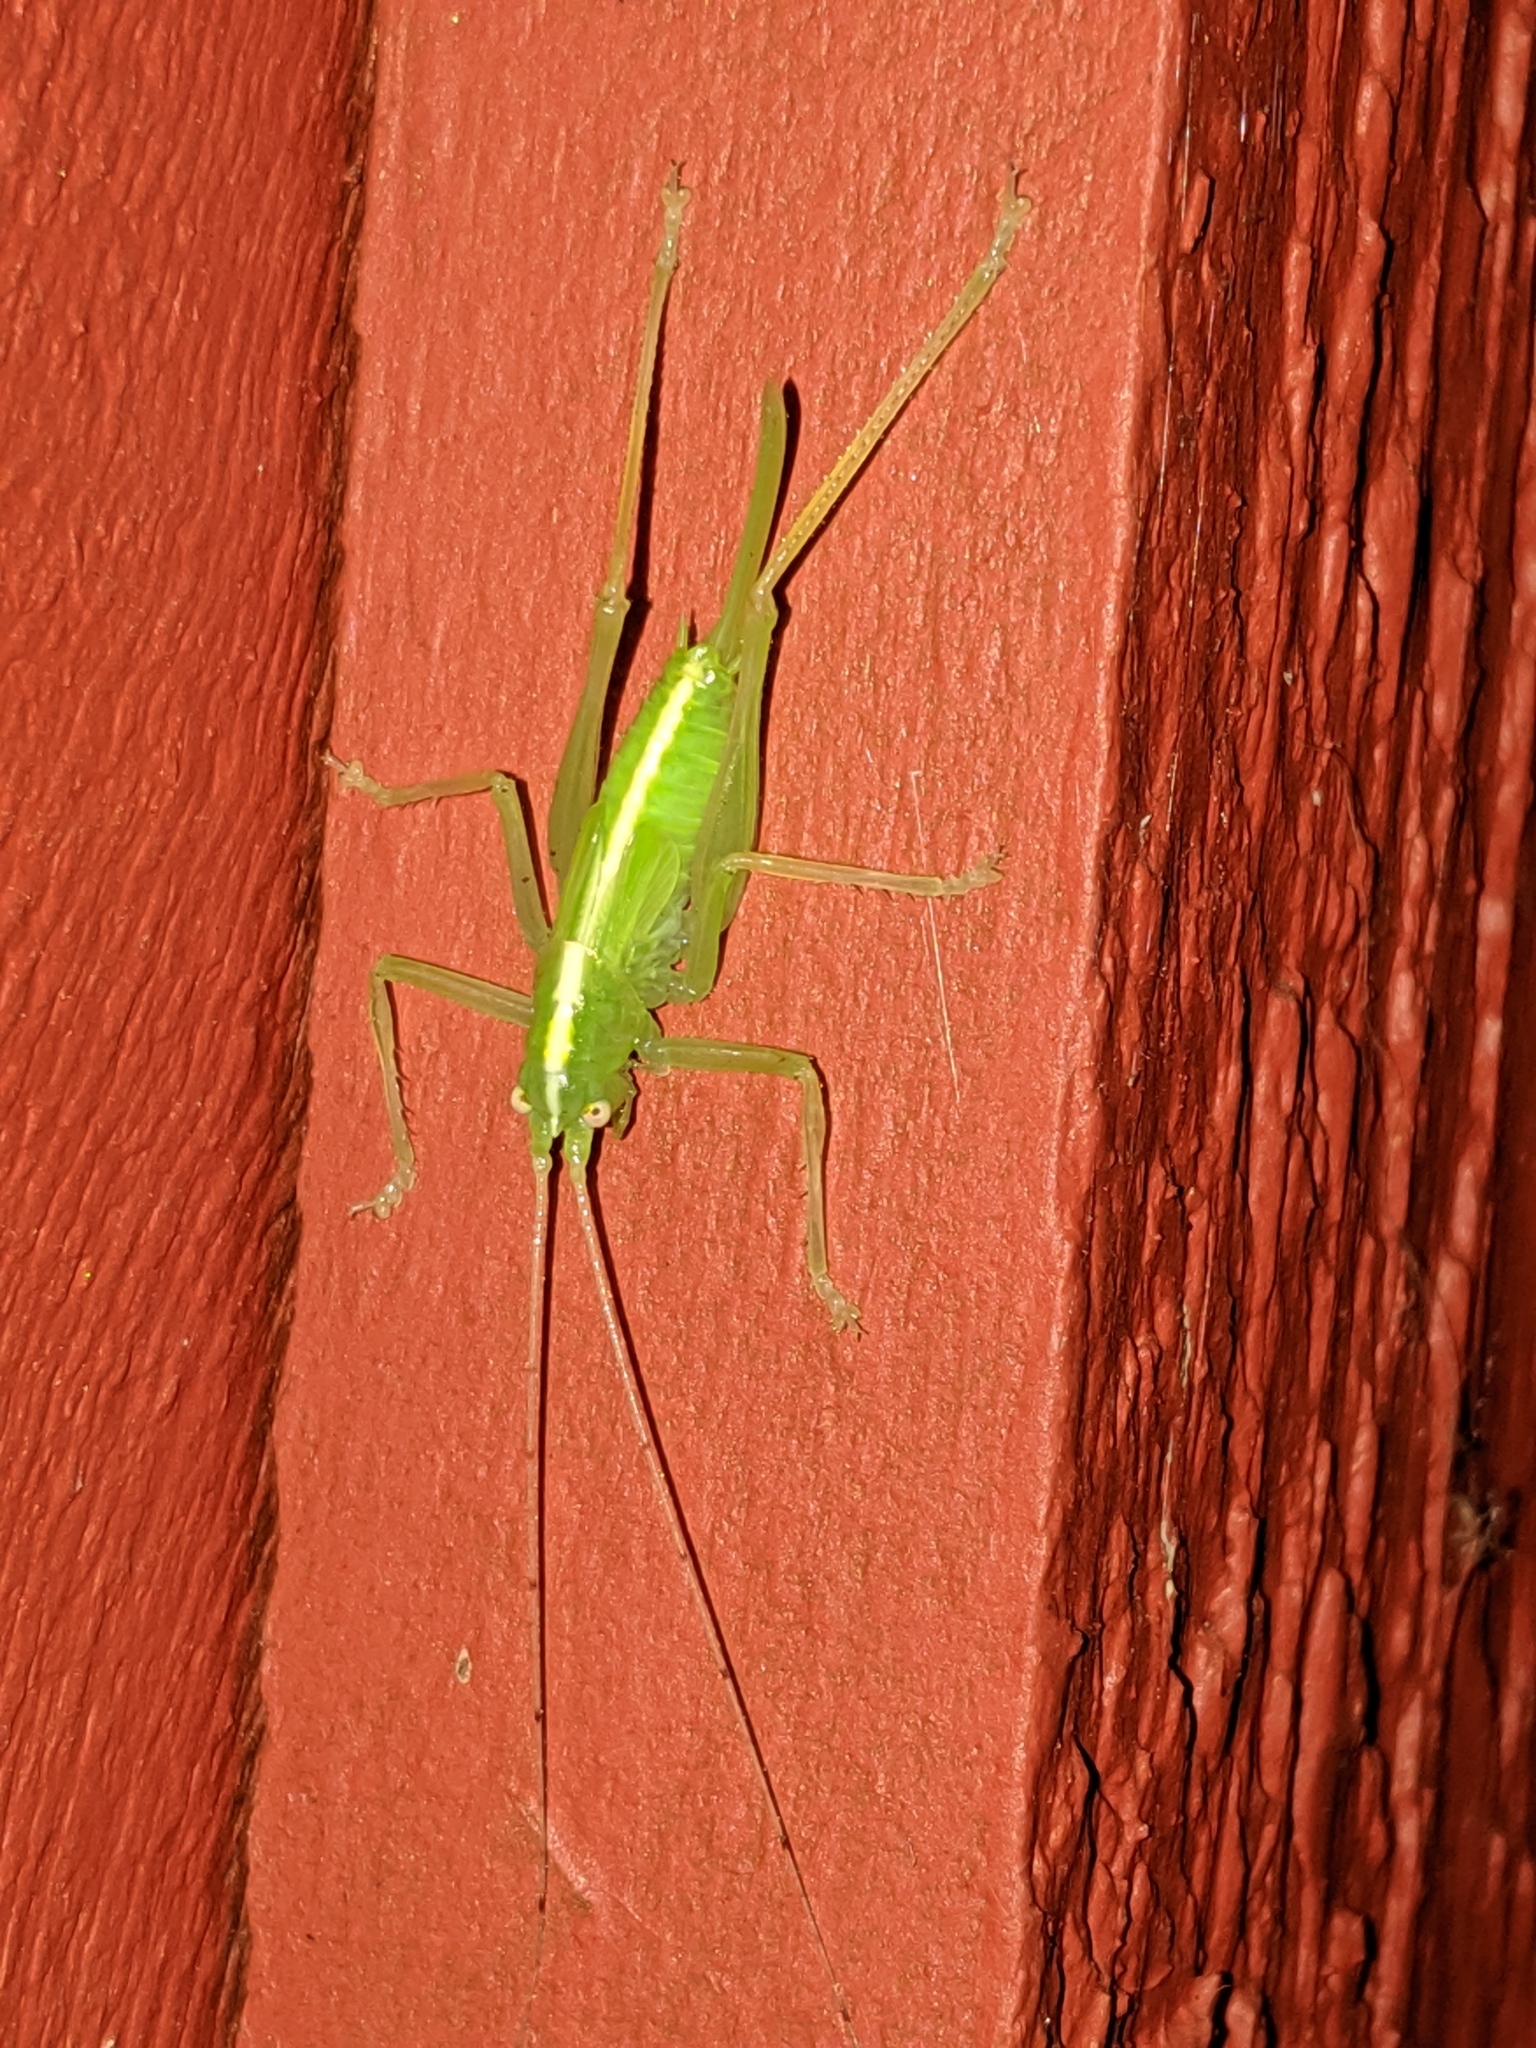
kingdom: Animalia
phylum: Arthropoda
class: Insecta
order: Orthoptera
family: Tettigoniidae
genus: Meconema
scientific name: Meconema thalassinum
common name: Oak bush-cricket
